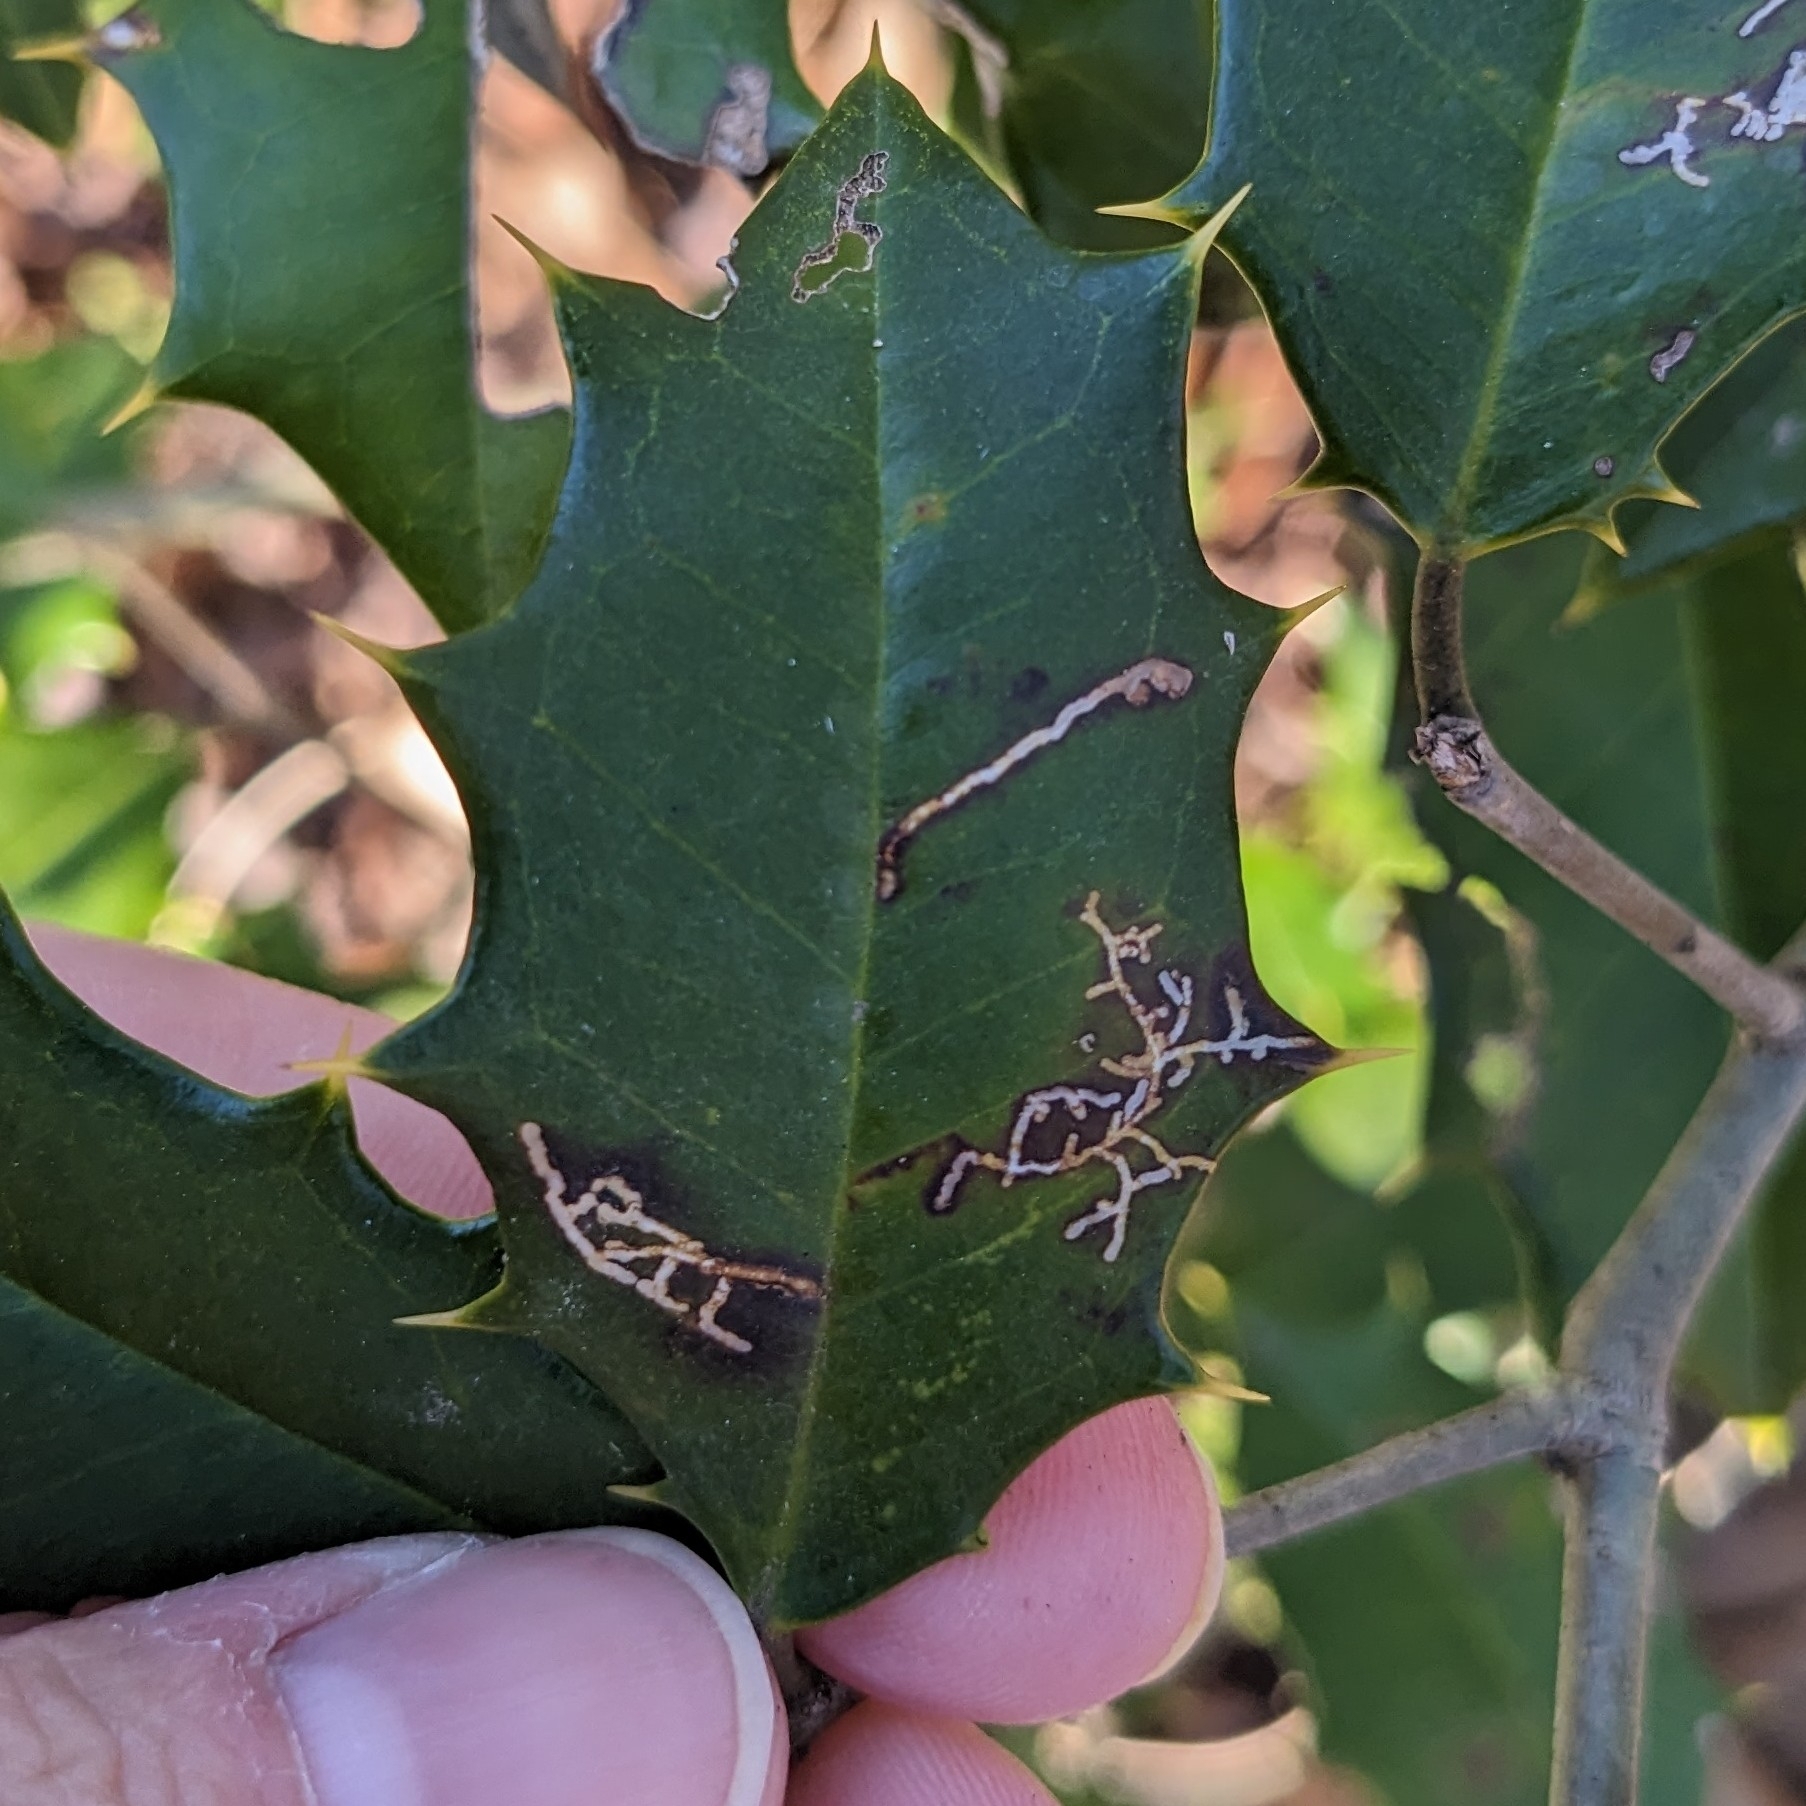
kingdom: Animalia
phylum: Arthropoda
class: Insecta
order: Lepidoptera
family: Tortricidae
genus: Rhopobota
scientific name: Rhopobota
